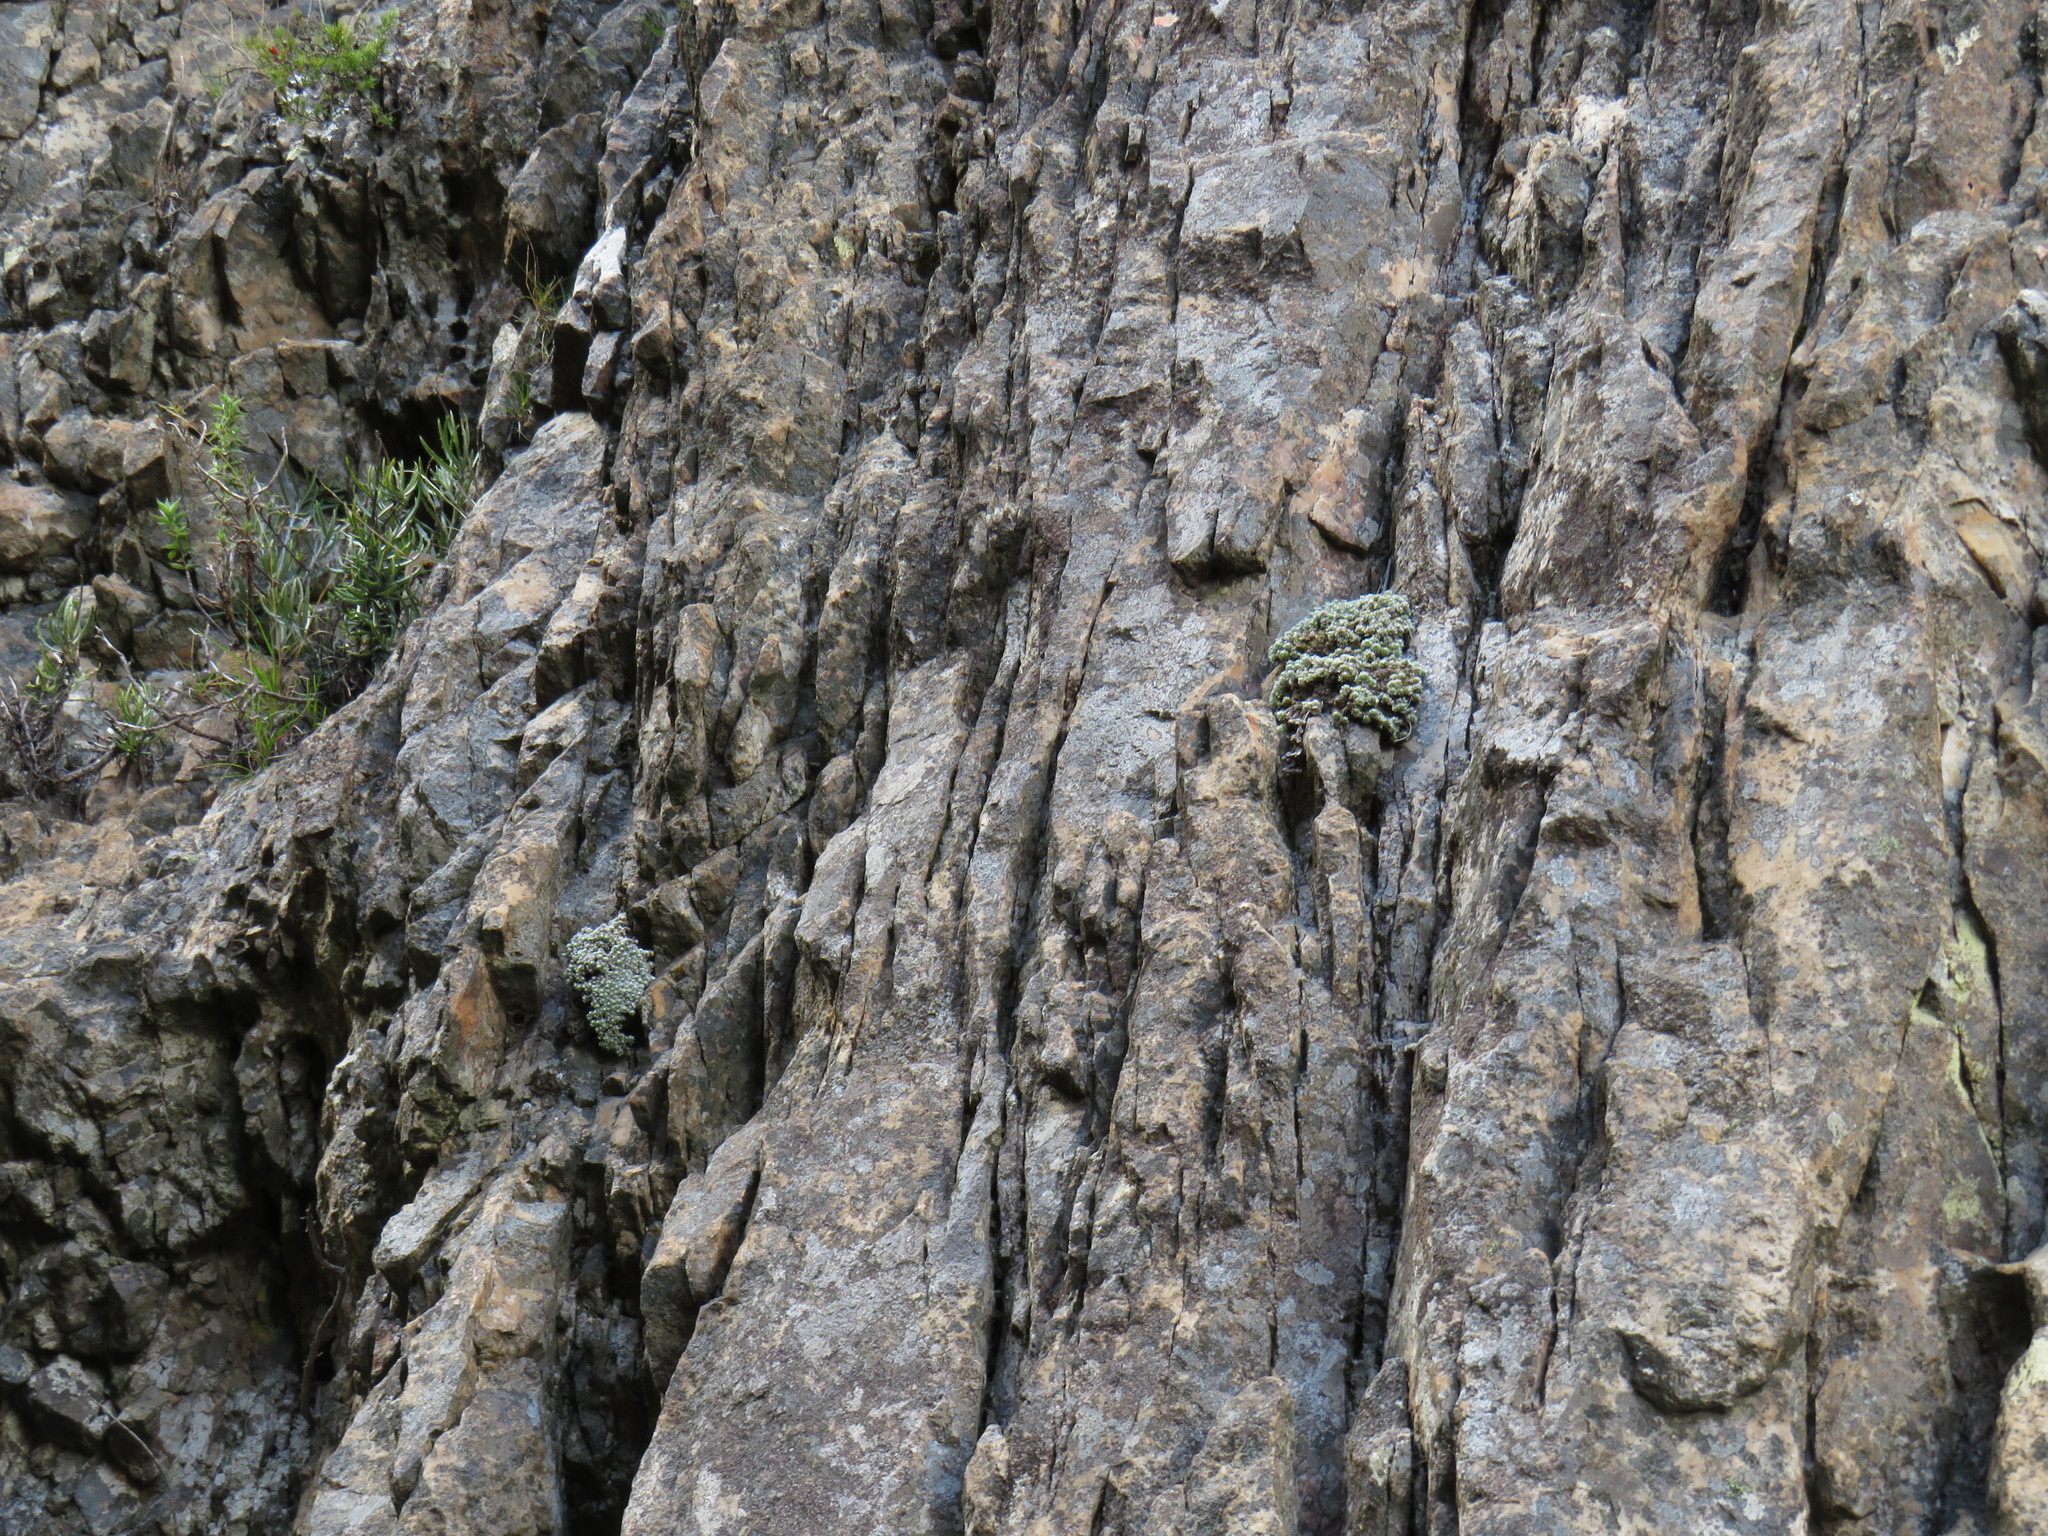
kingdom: Plantae
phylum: Tracheophyta
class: Magnoliopsida
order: Asterales
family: Asteraceae
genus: Muscosomorphe
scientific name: Muscosomorphe aretioides
